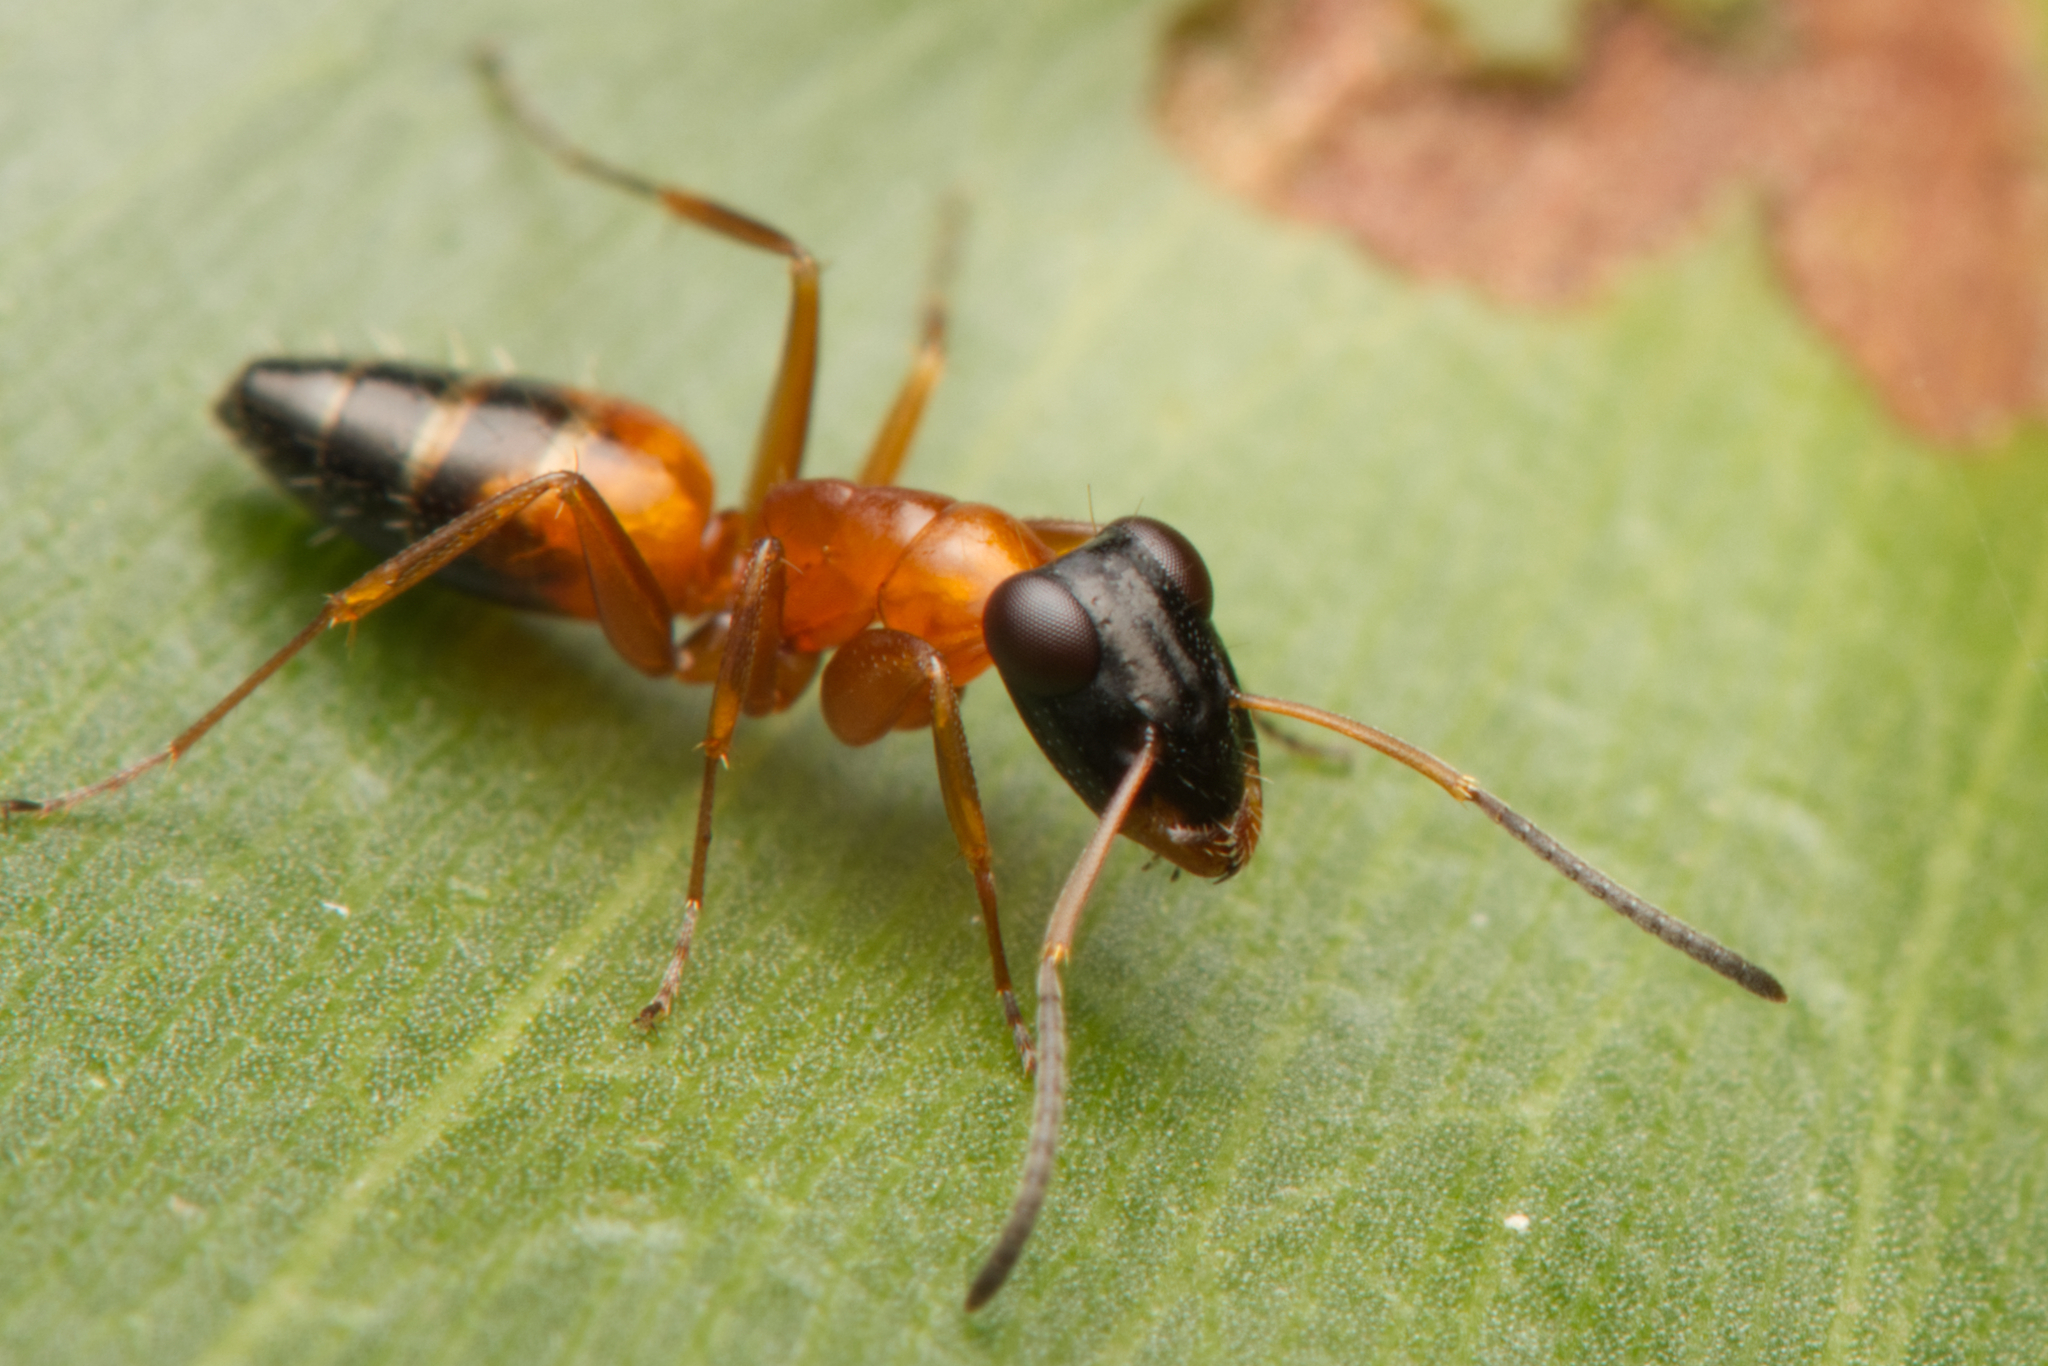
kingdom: Animalia
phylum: Arthropoda
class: Insecta
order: Hymenoptera
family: Formicidae
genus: Opisthopsis
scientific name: Opisthopsis rufithorax
